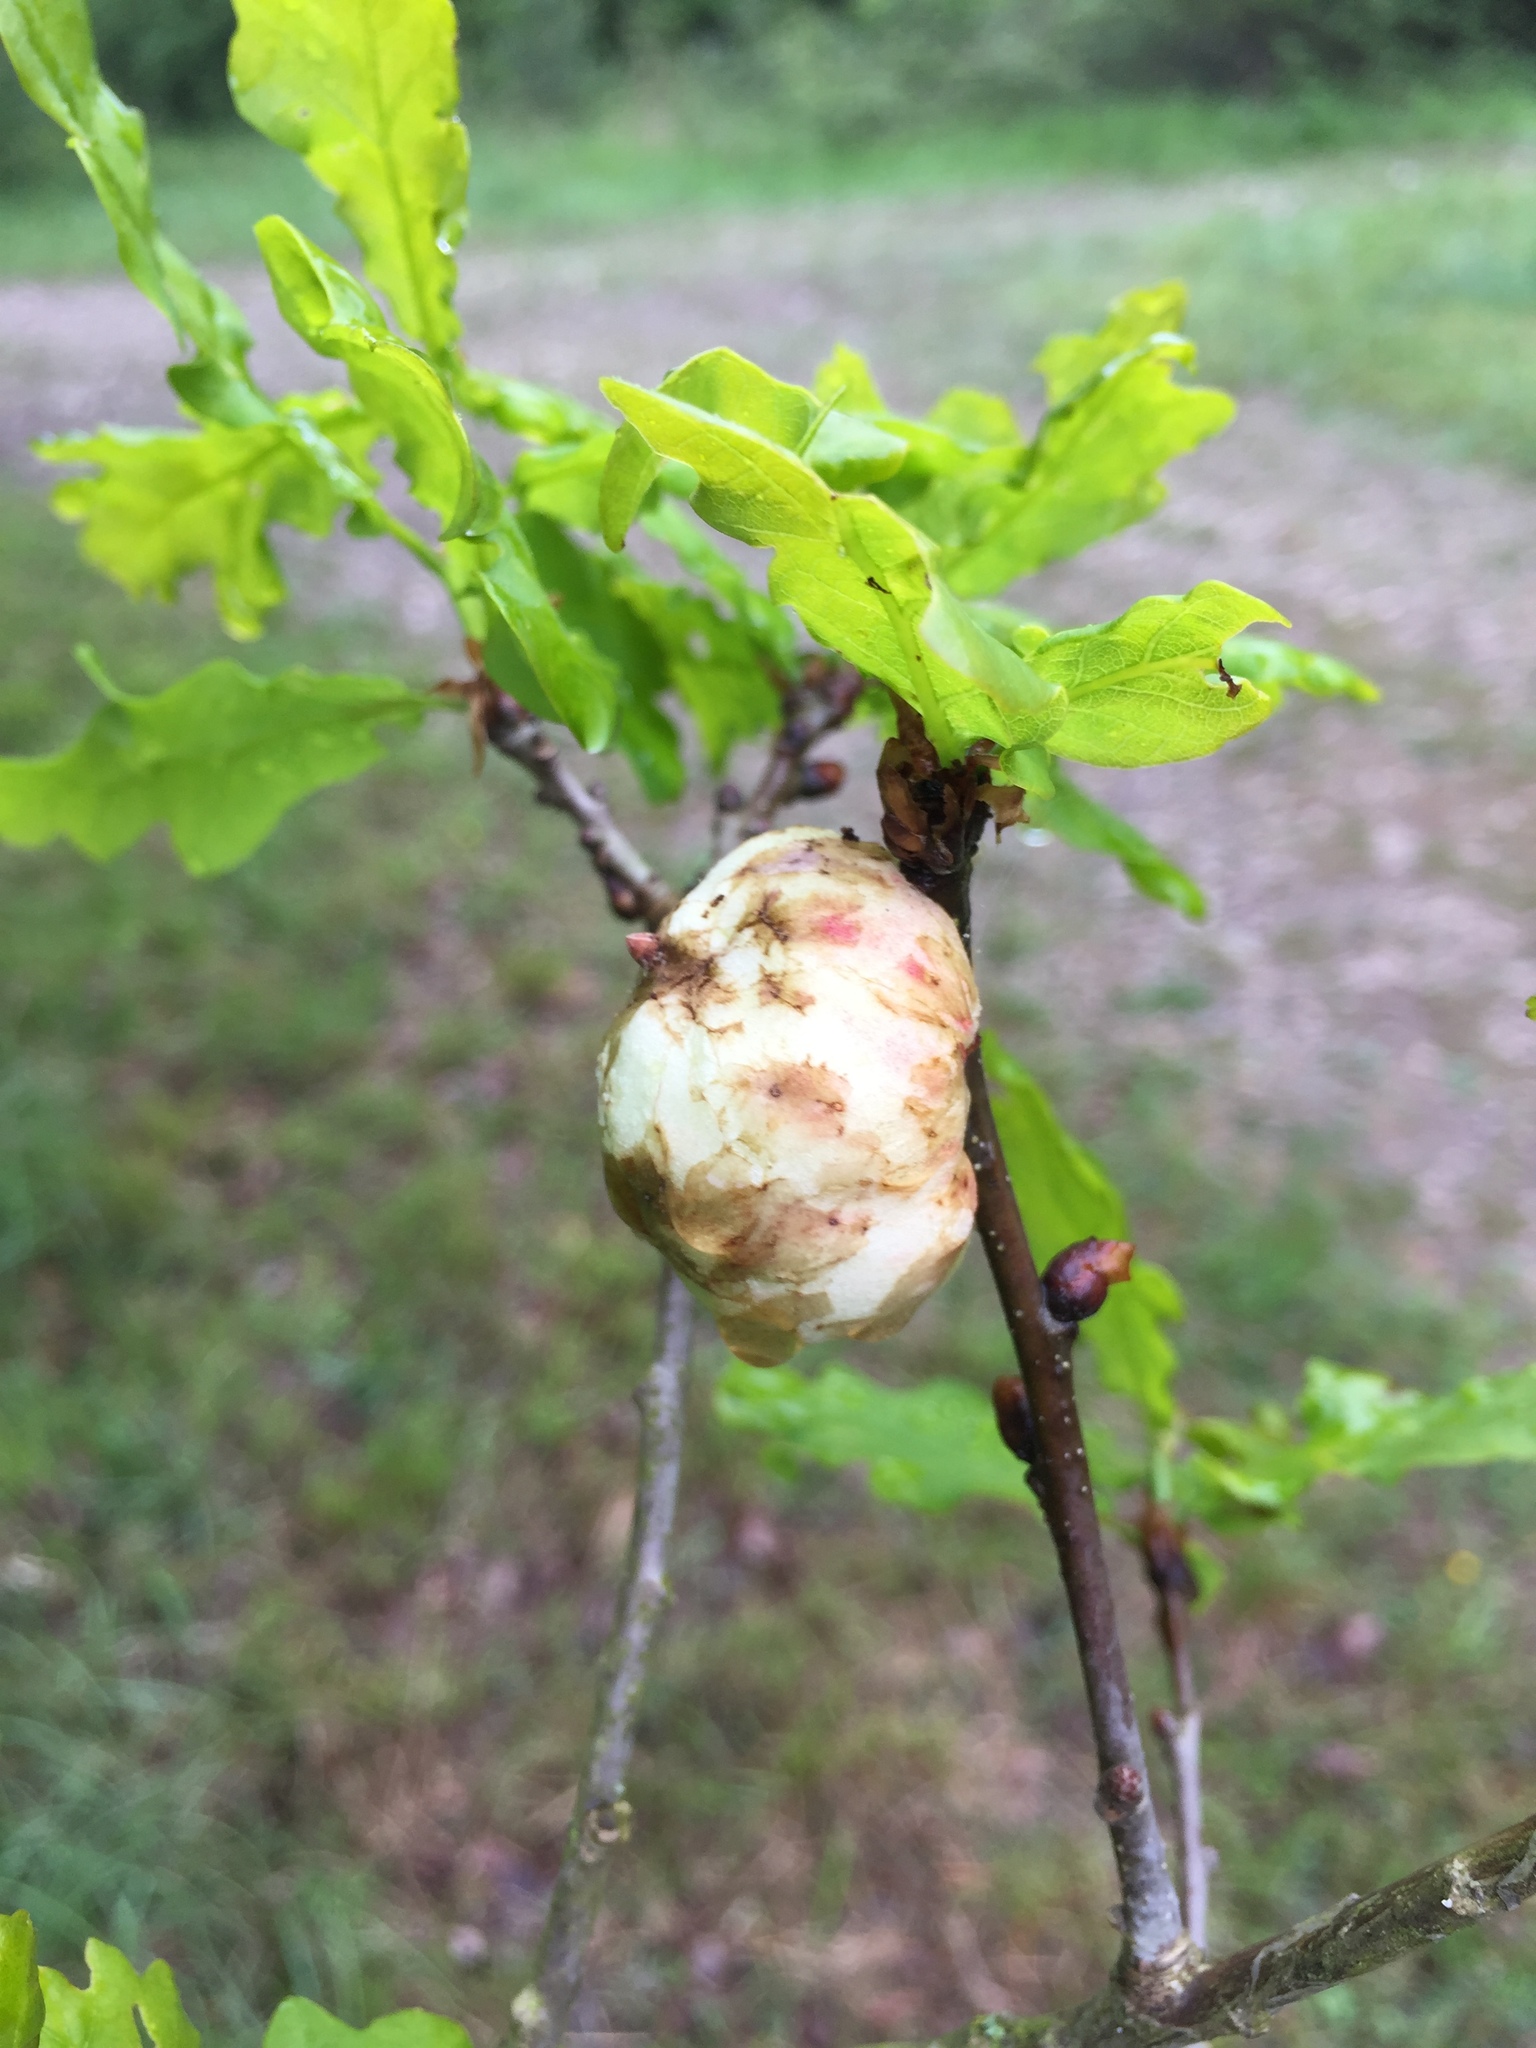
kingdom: Animalia
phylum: Arthropoda
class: Insecta
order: Hymenoptera
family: Cynipidae
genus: Biorhiza
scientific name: Biorhiza pallida
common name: Oak apple
